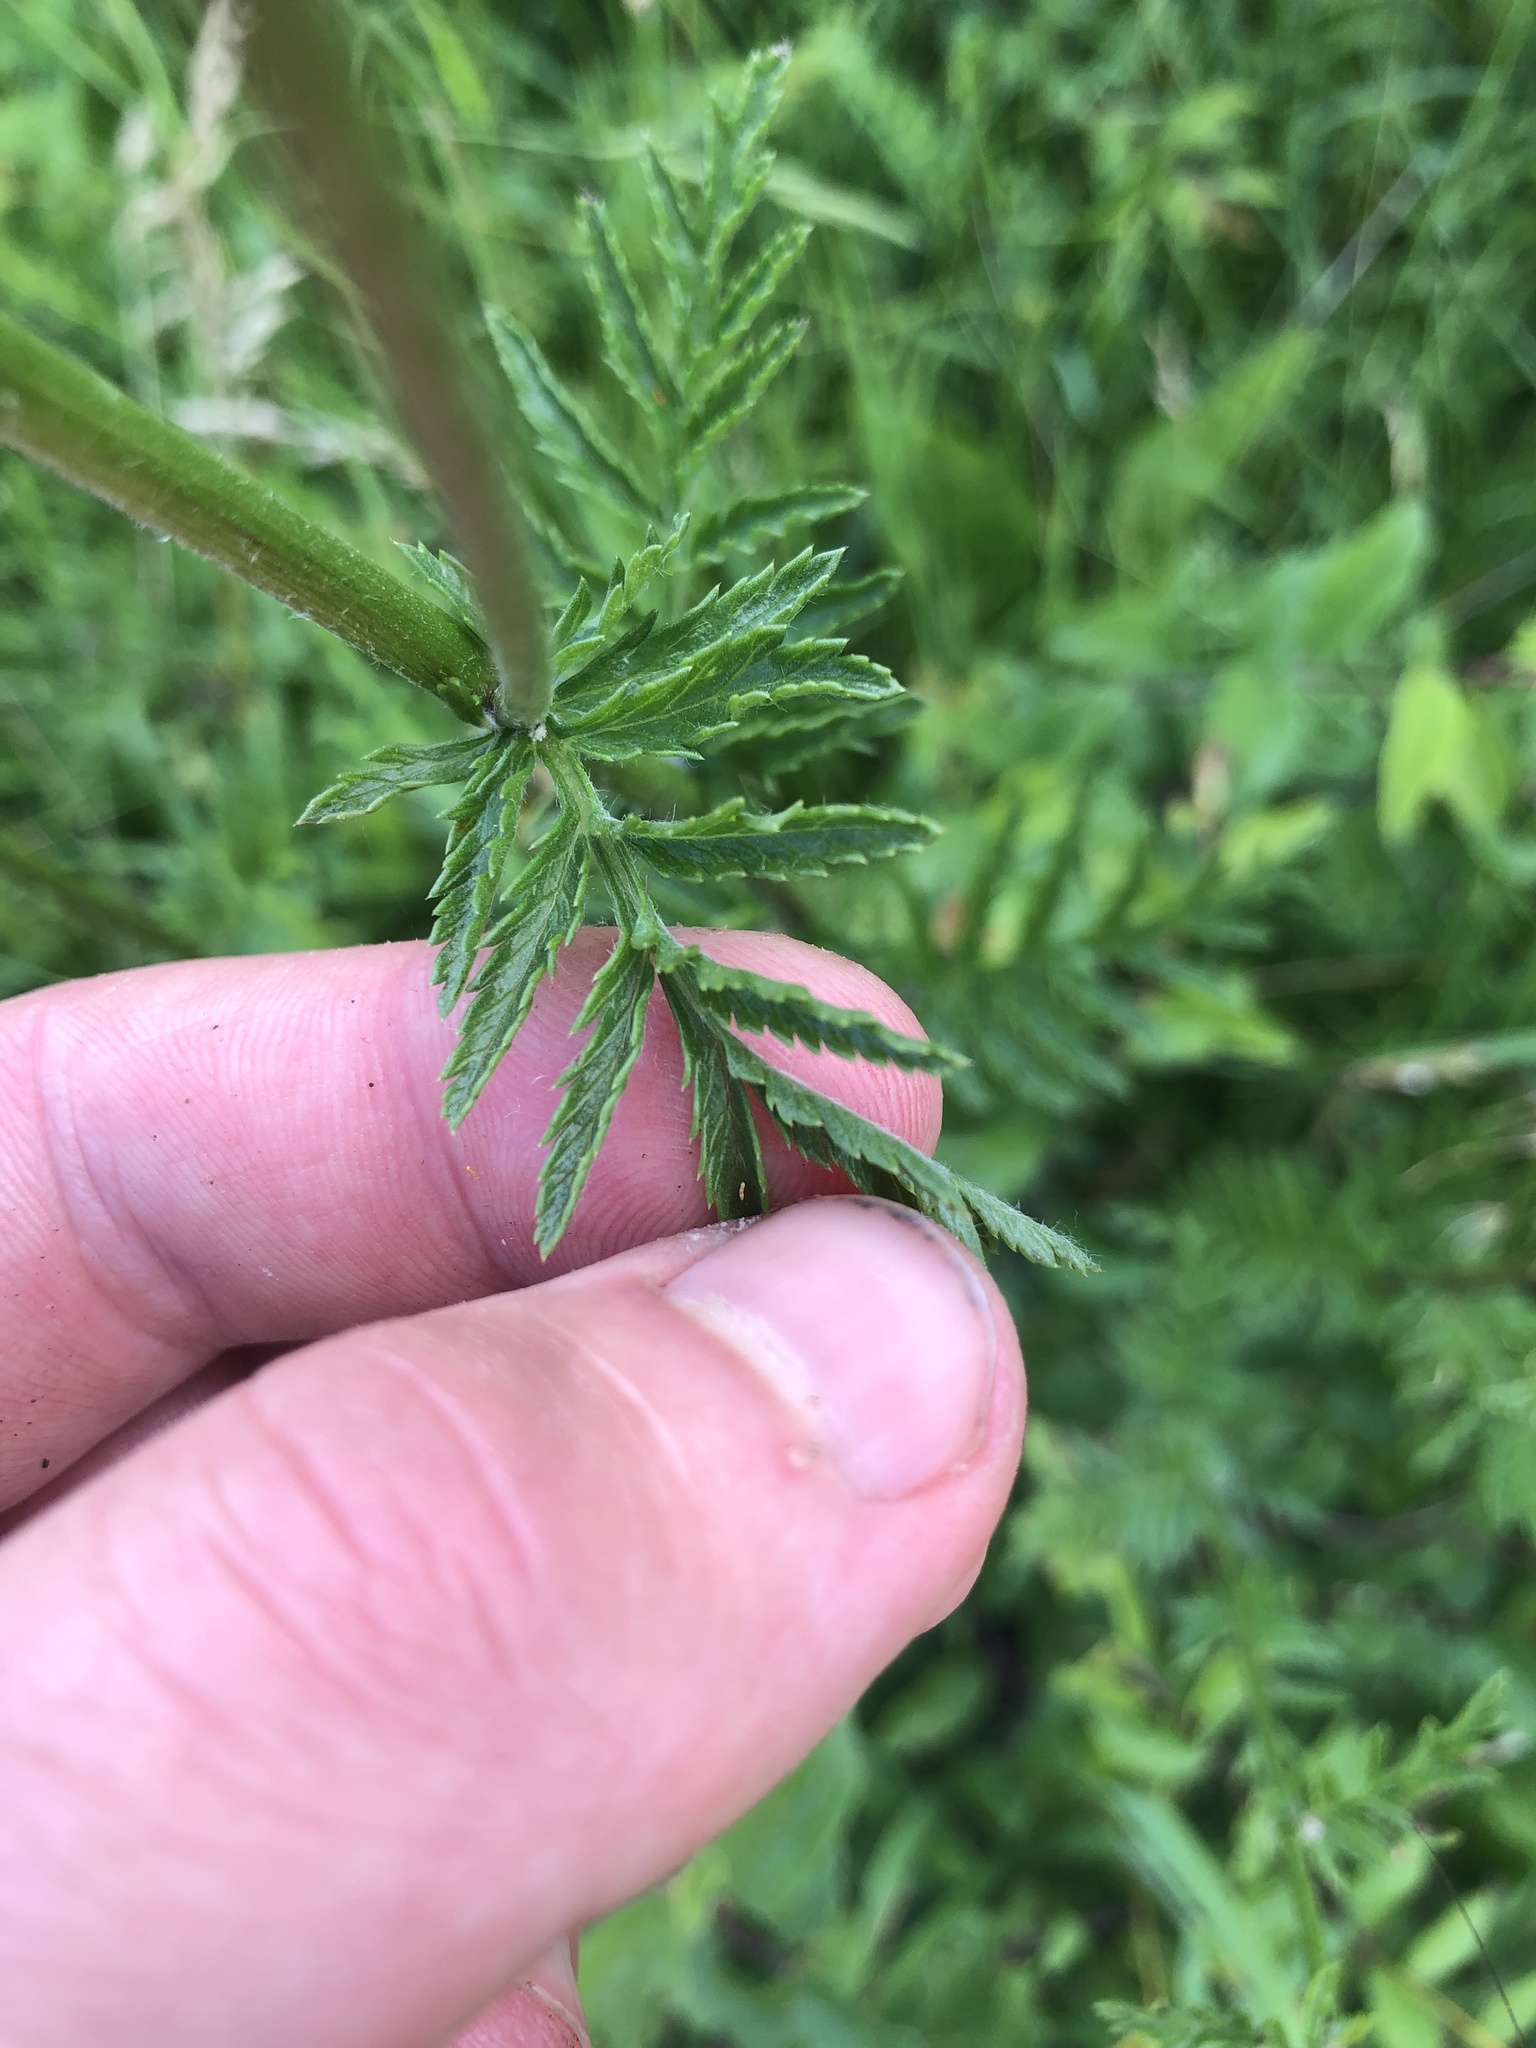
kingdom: Plantae
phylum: Tracheophyta
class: Magnoliopsida
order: Asterales
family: Asteraceae
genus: Tanacetum
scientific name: Tanacetum corymbosum
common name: Scentless feverfew
